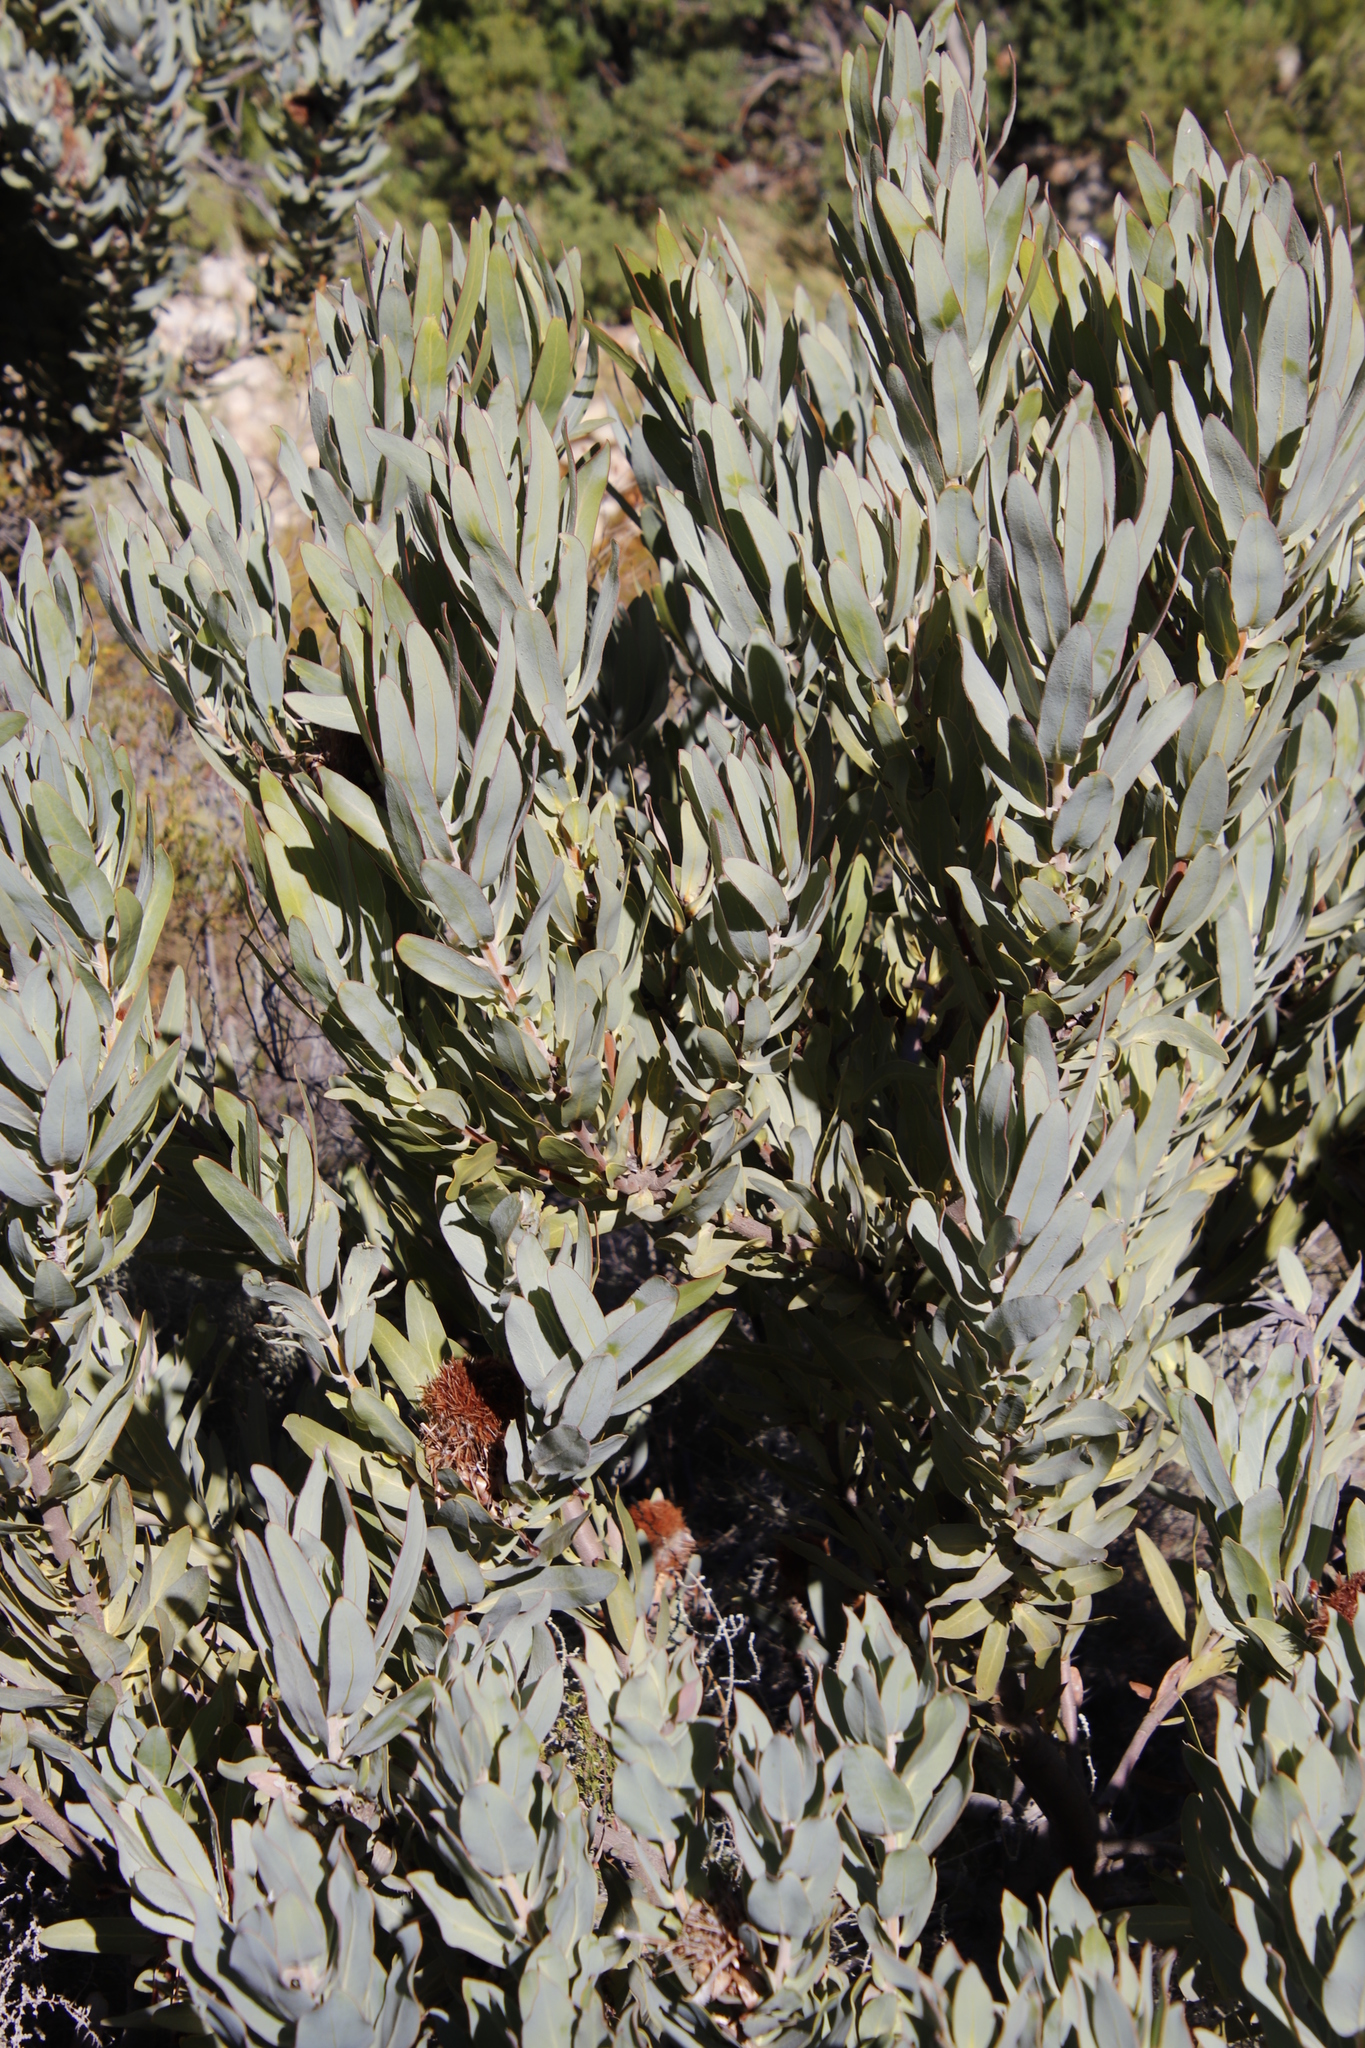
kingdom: Plantae
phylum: Tracheophyta
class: Magnoliopsida
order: Proteales
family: Proteaceae
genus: Protea
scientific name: Protea laurifolia
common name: Grey-leaf sugarbsh
